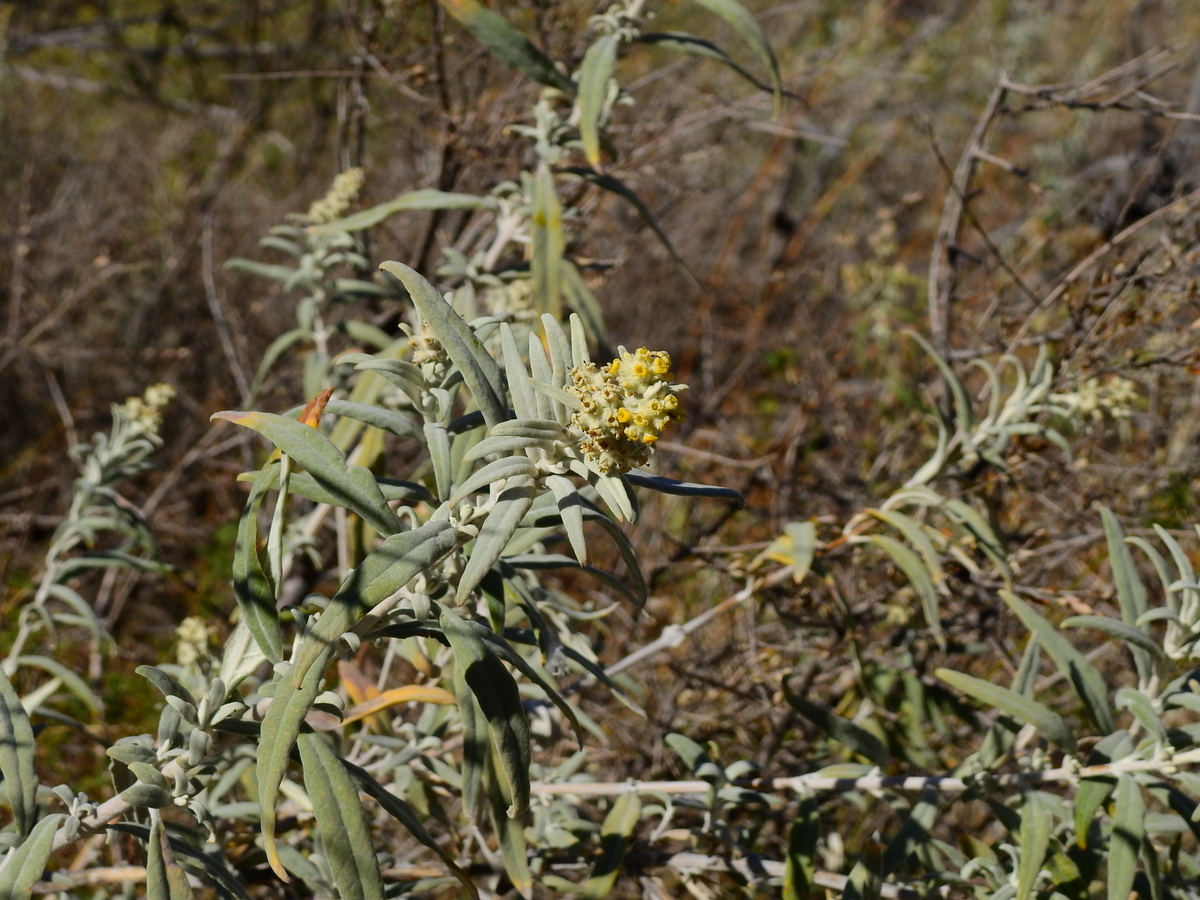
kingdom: Plantae
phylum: Tracheophyta
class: Magnoliopsida
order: Lamiales
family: Scrophulariaceae
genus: Buddleja
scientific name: Buddleja cordobensis
